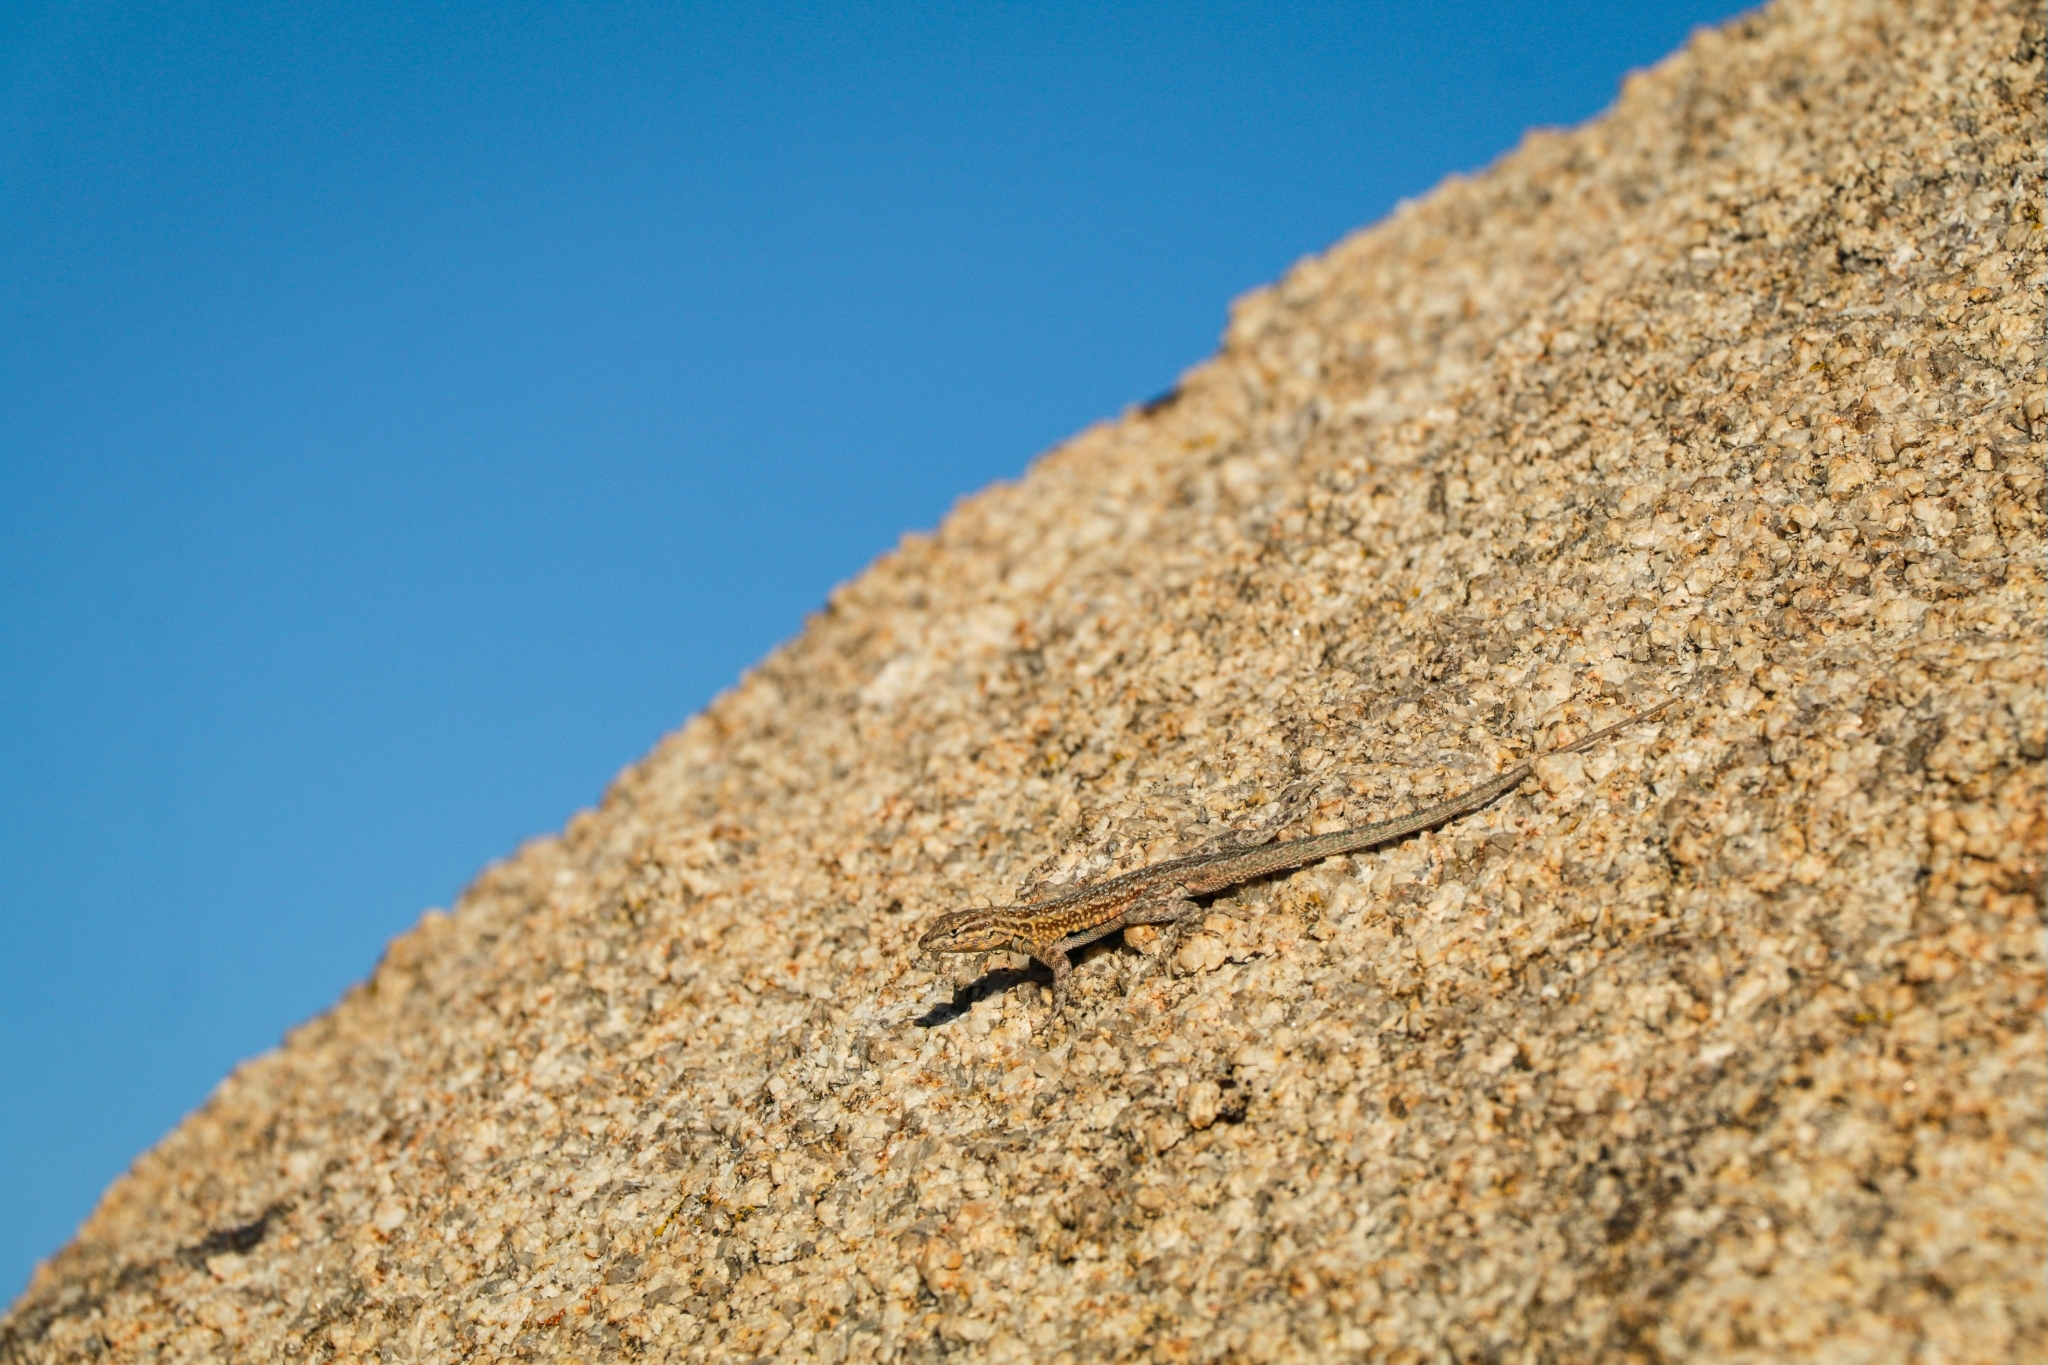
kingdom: Animalia
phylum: Chordata
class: Squamata
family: Phrynosomatidae
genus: Uta
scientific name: Uta stansburiana
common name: Side-blotched lizard
